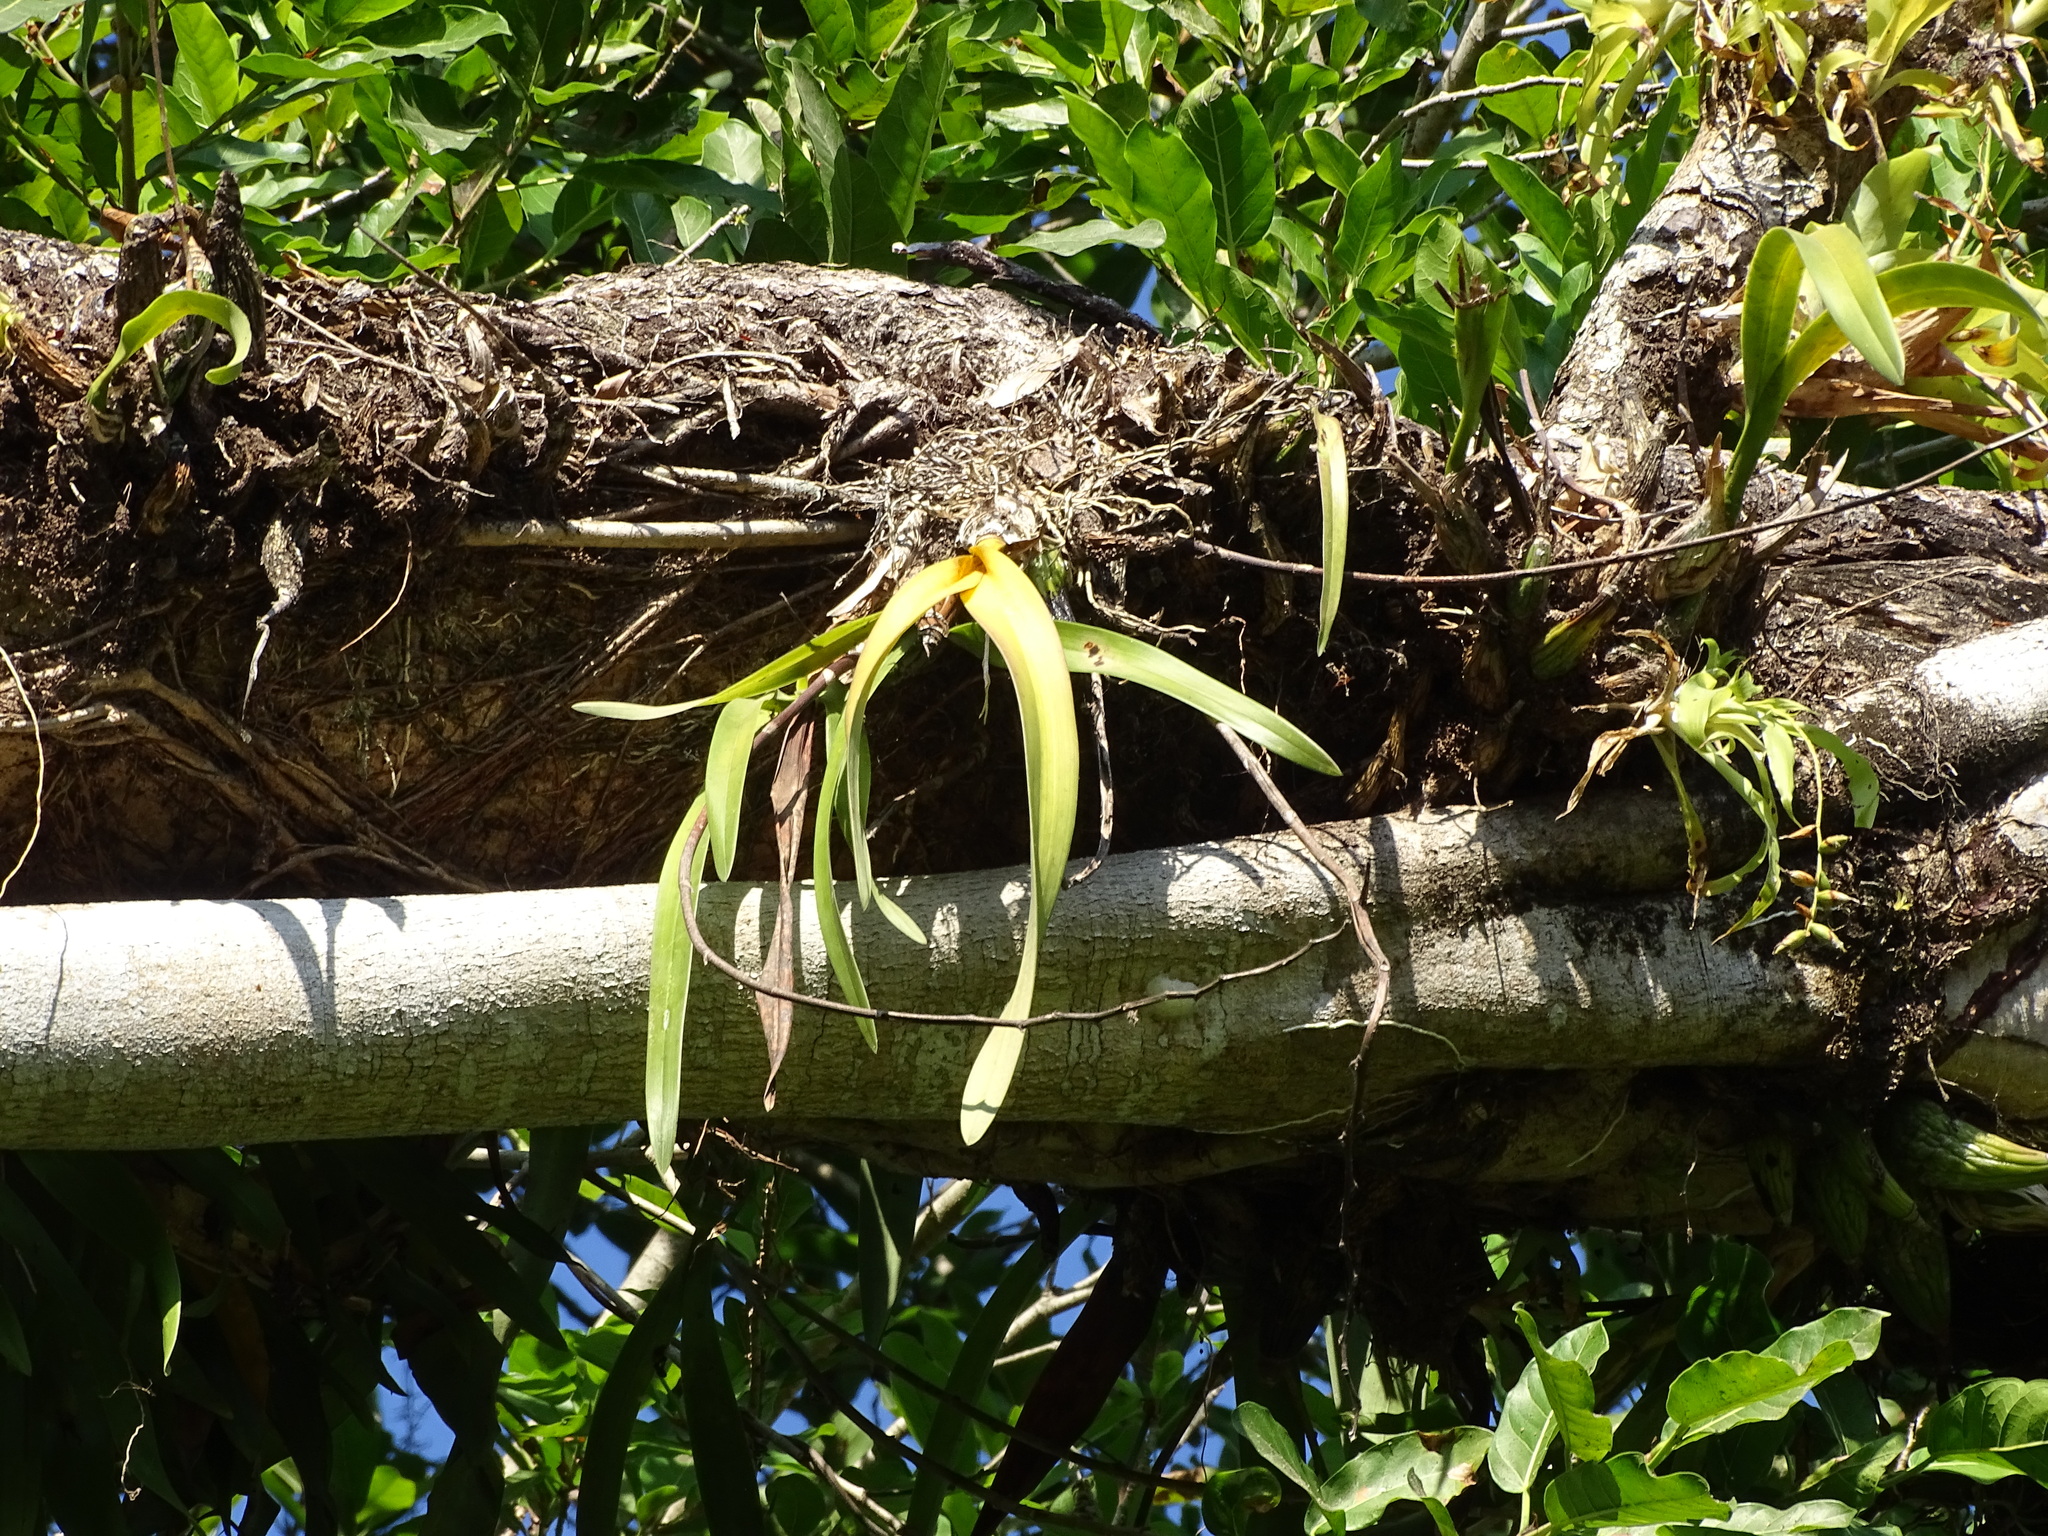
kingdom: Plantae
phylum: Tracheophyta
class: Liliopsida
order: Asparagales
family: Orchidaceae
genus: Encyclia
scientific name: Encyclia cordigera
